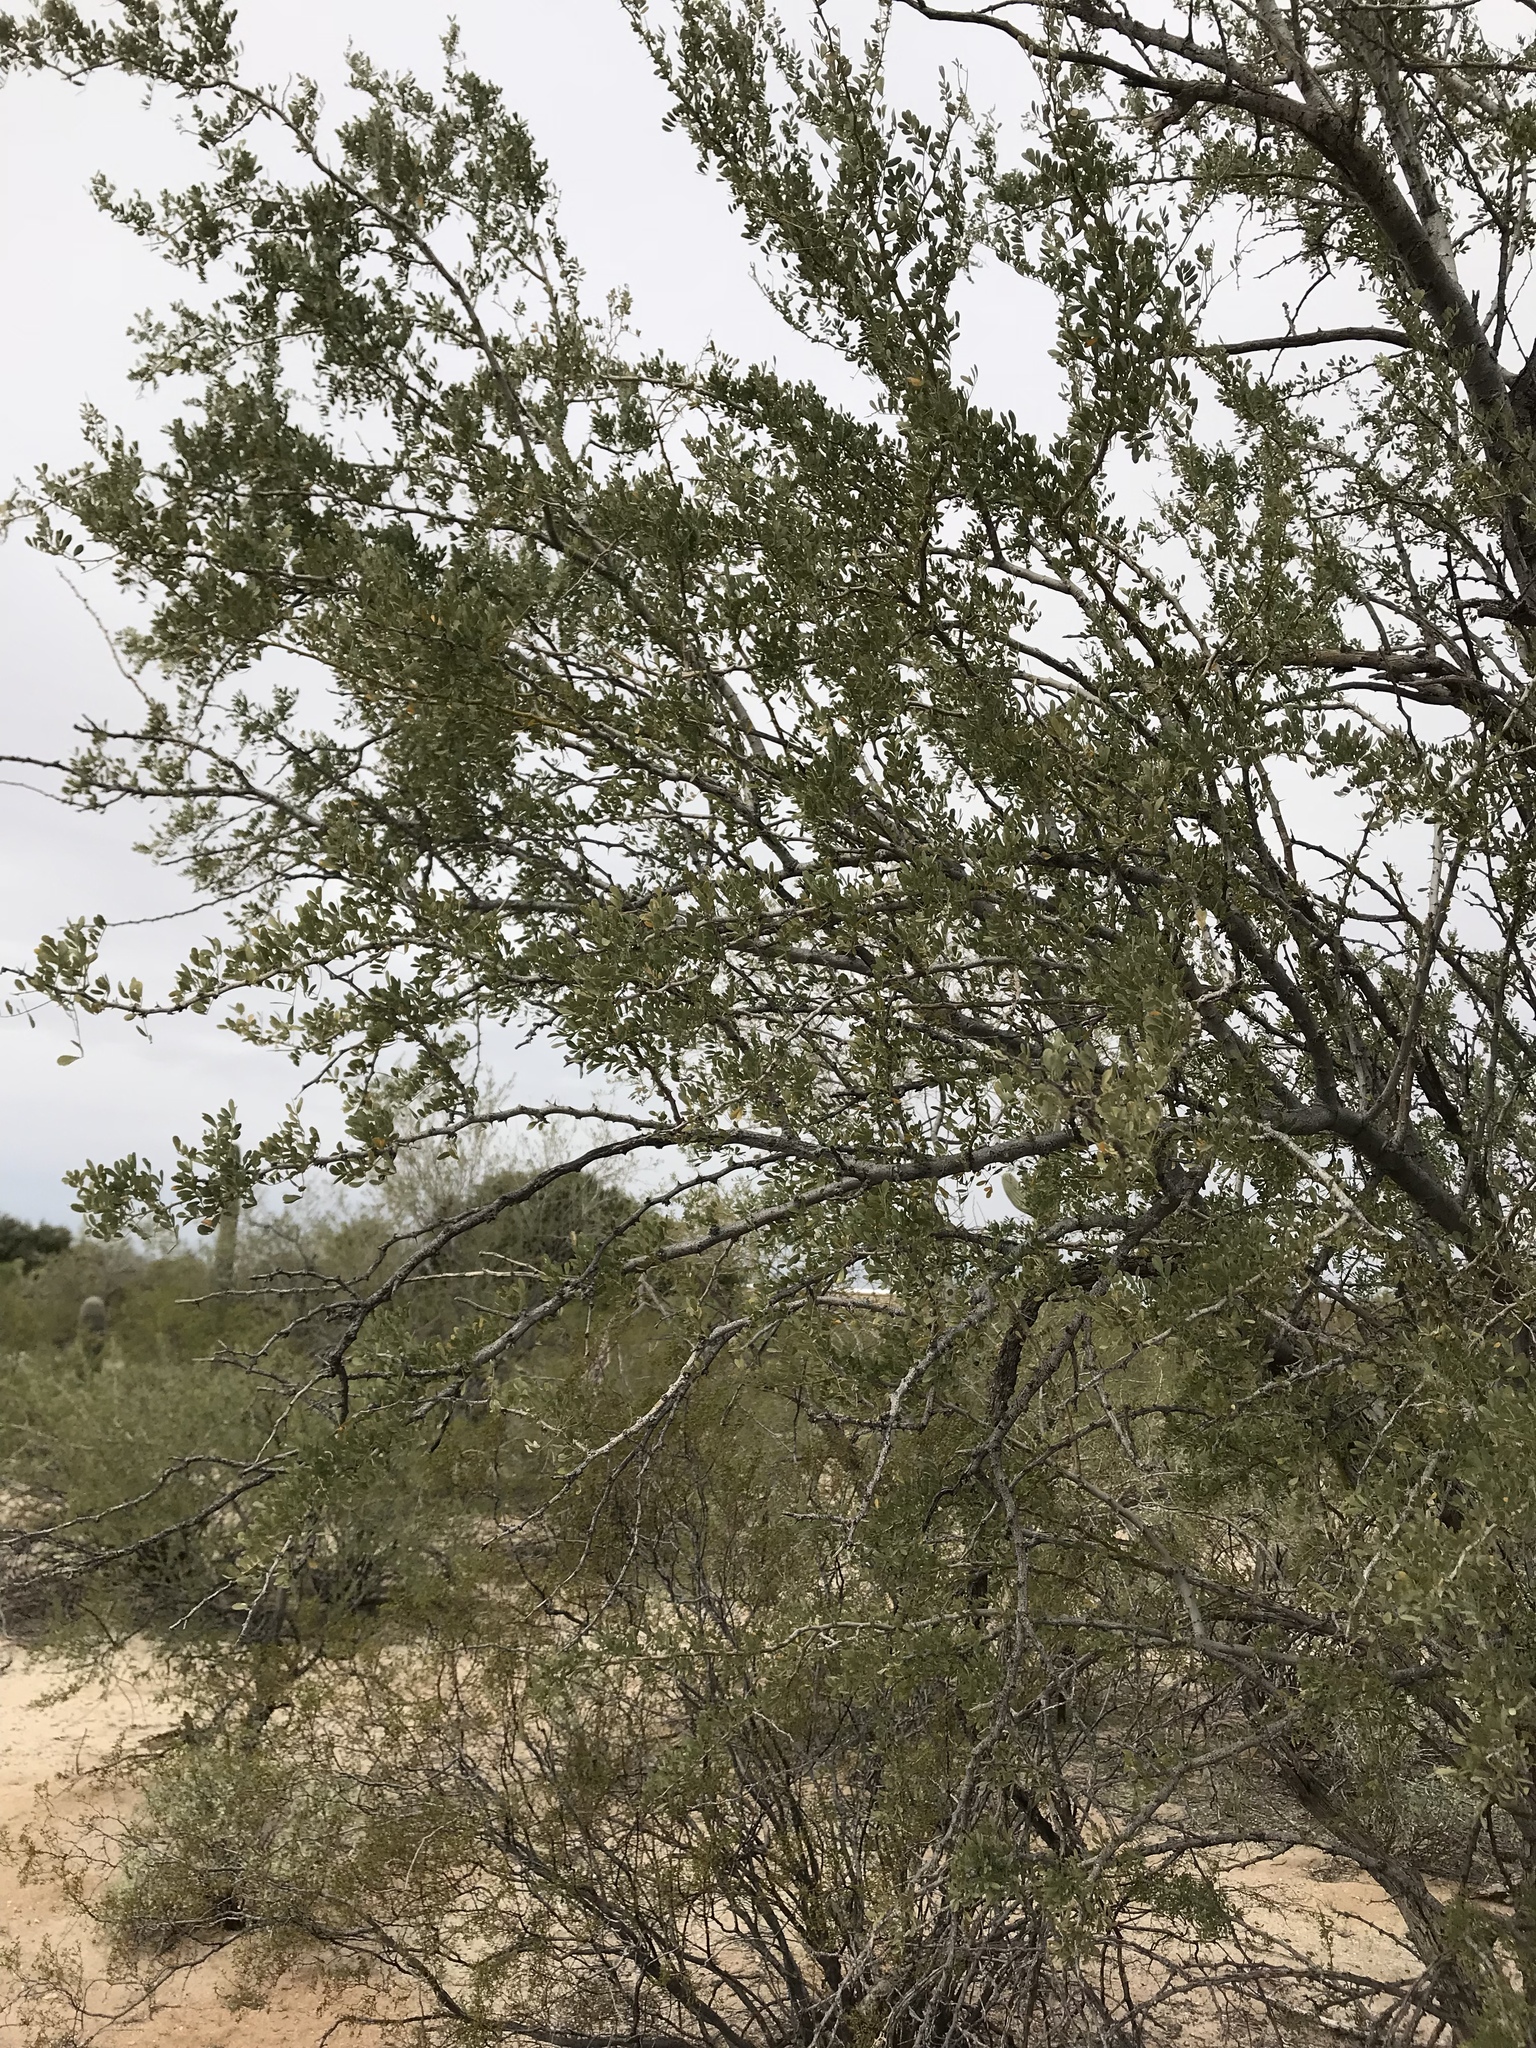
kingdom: Plantae
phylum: Tracheophyta
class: Magnoliopsida
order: Fabales
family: Fabaceae
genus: Olneya
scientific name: Olneya tesota
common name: Desert ironwood
